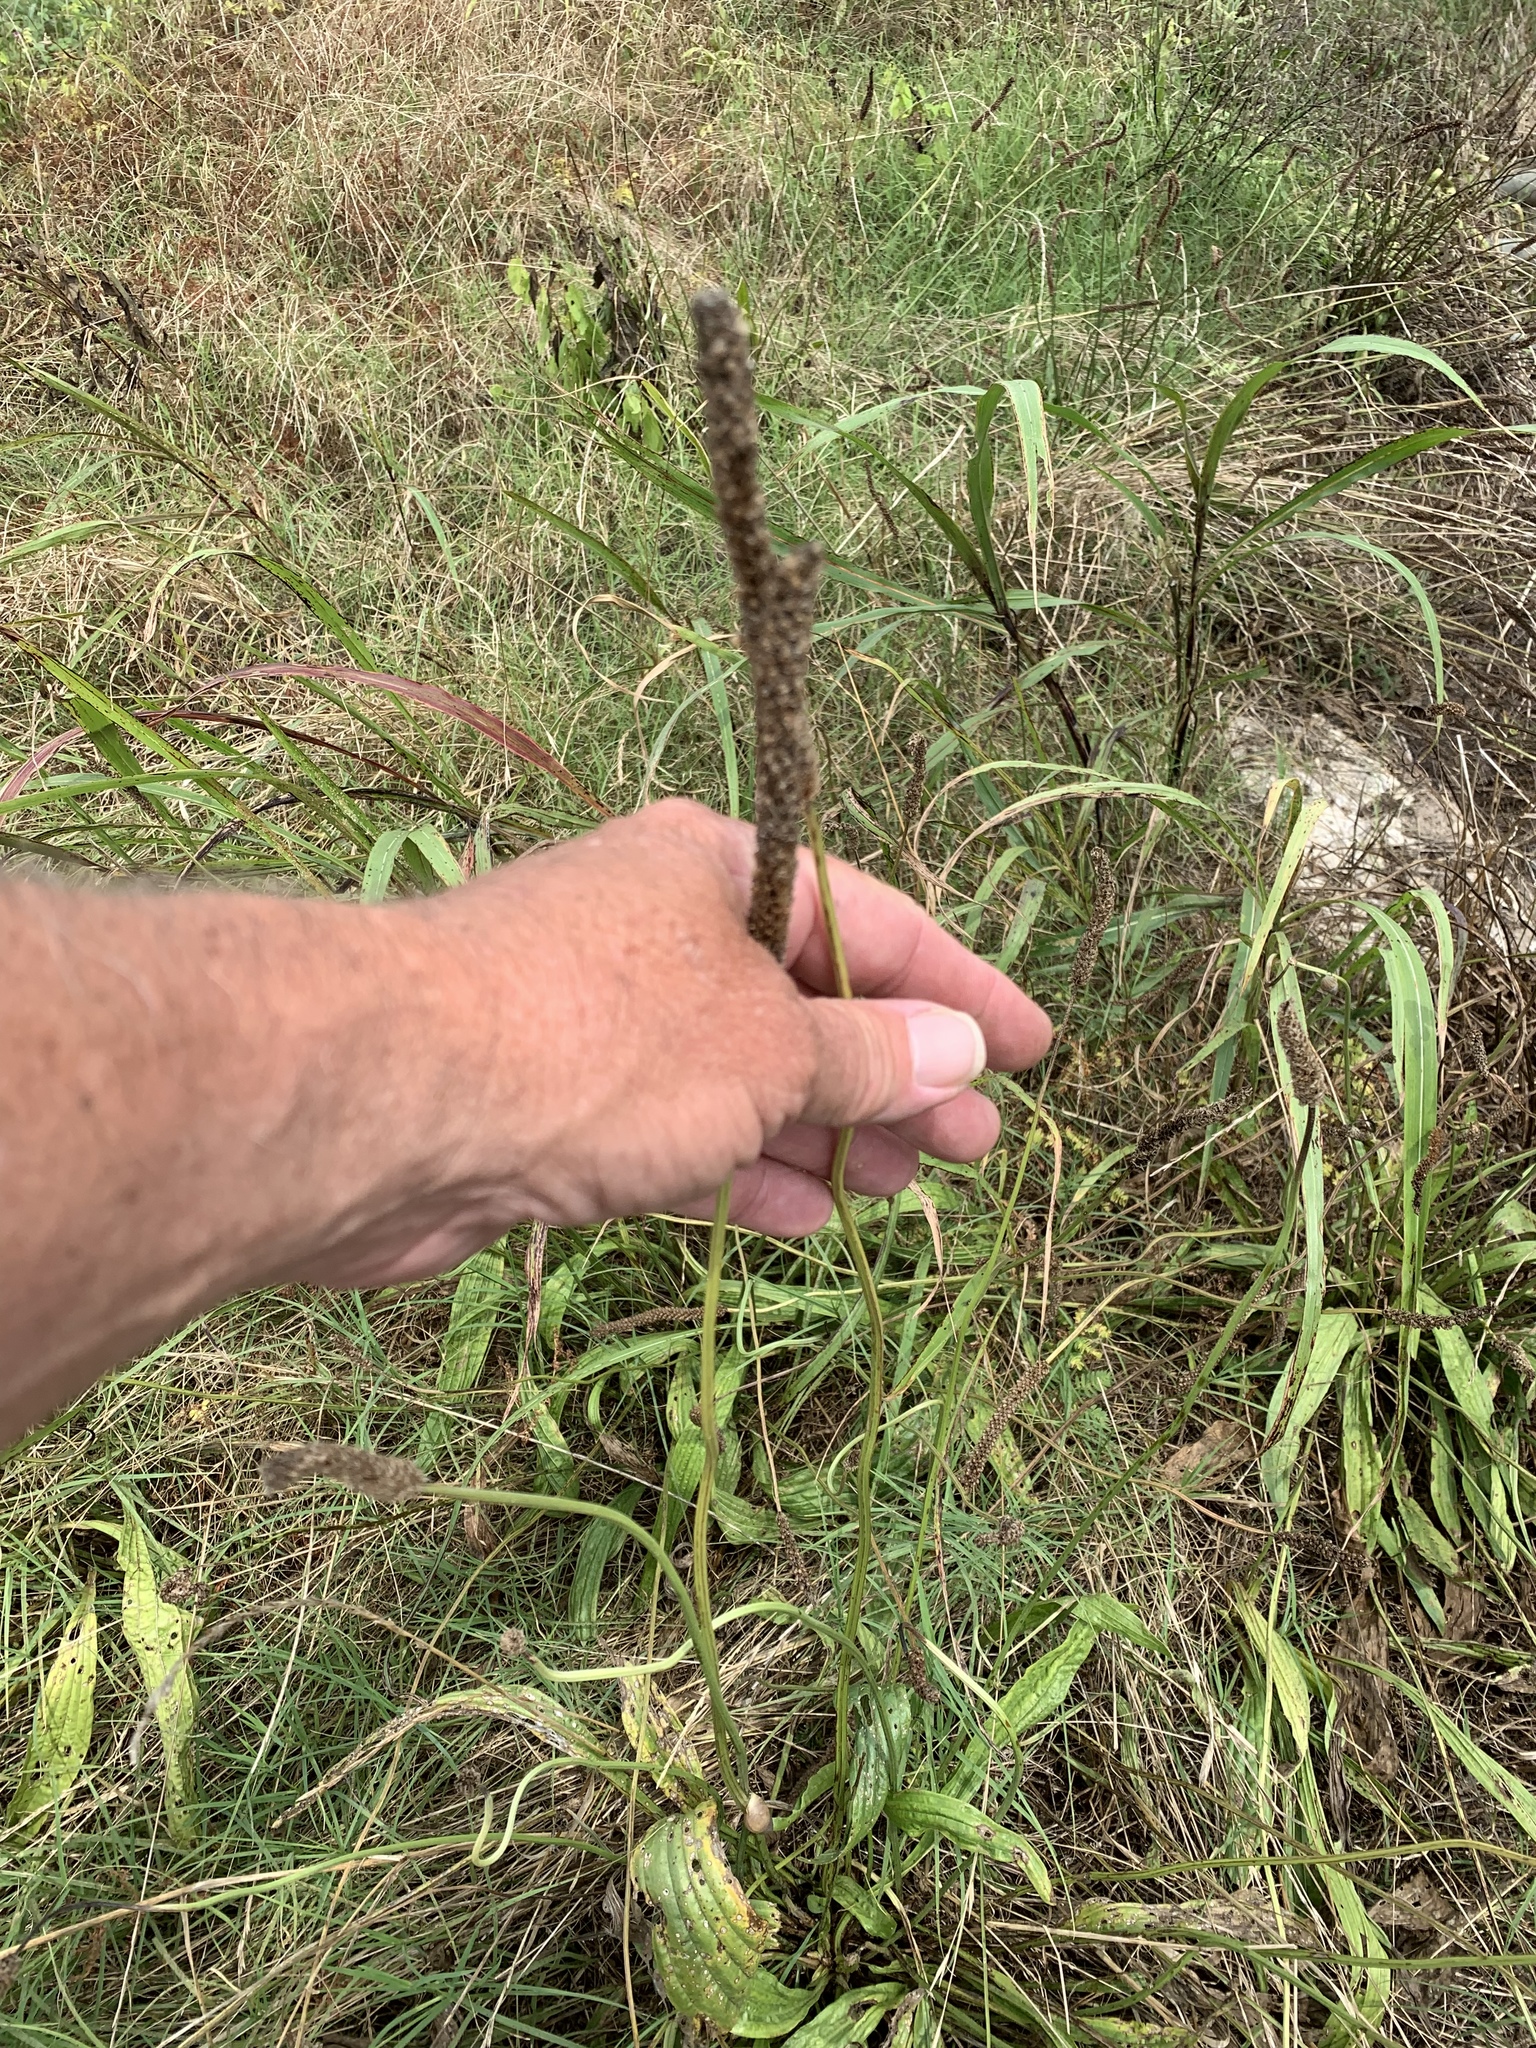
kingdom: Plantae
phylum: Tracheophyta
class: Magnoliopsida
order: Lamiales
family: Plantaginaceae
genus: Plantago
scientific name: Plantago lanceolata
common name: Ribwort plantain
